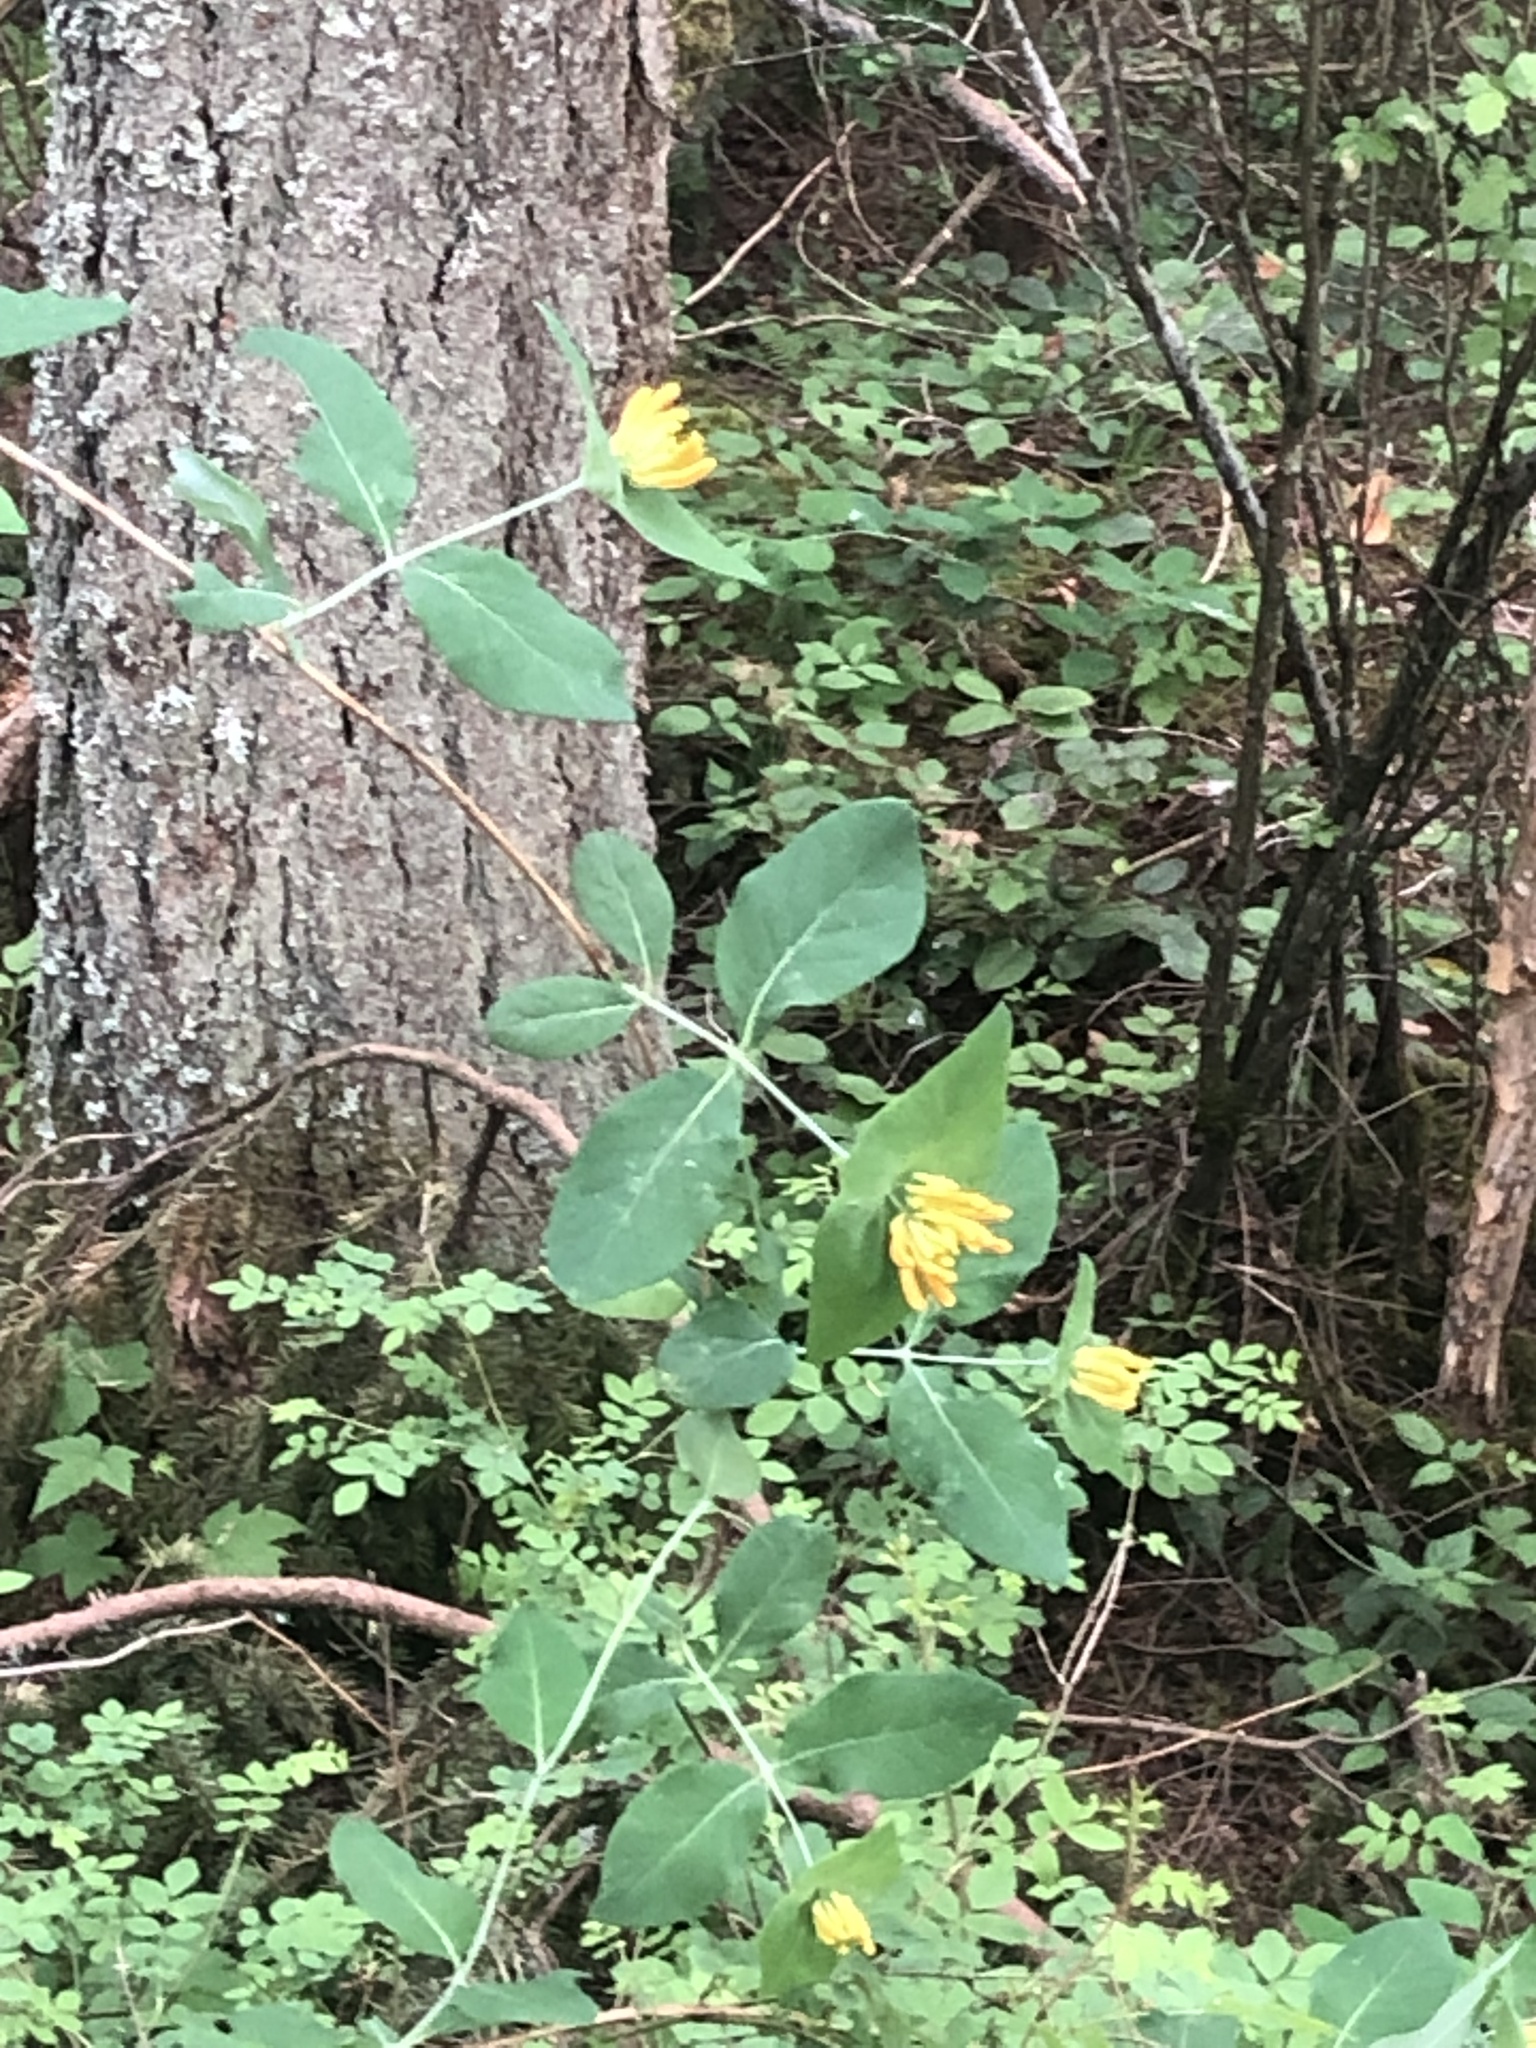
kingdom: Plantae
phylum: Tracheophyta
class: Magnoliopsida
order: Dipsacales
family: Caprifoliaceae
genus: Lonicera
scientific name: Lonicera ciliosa
